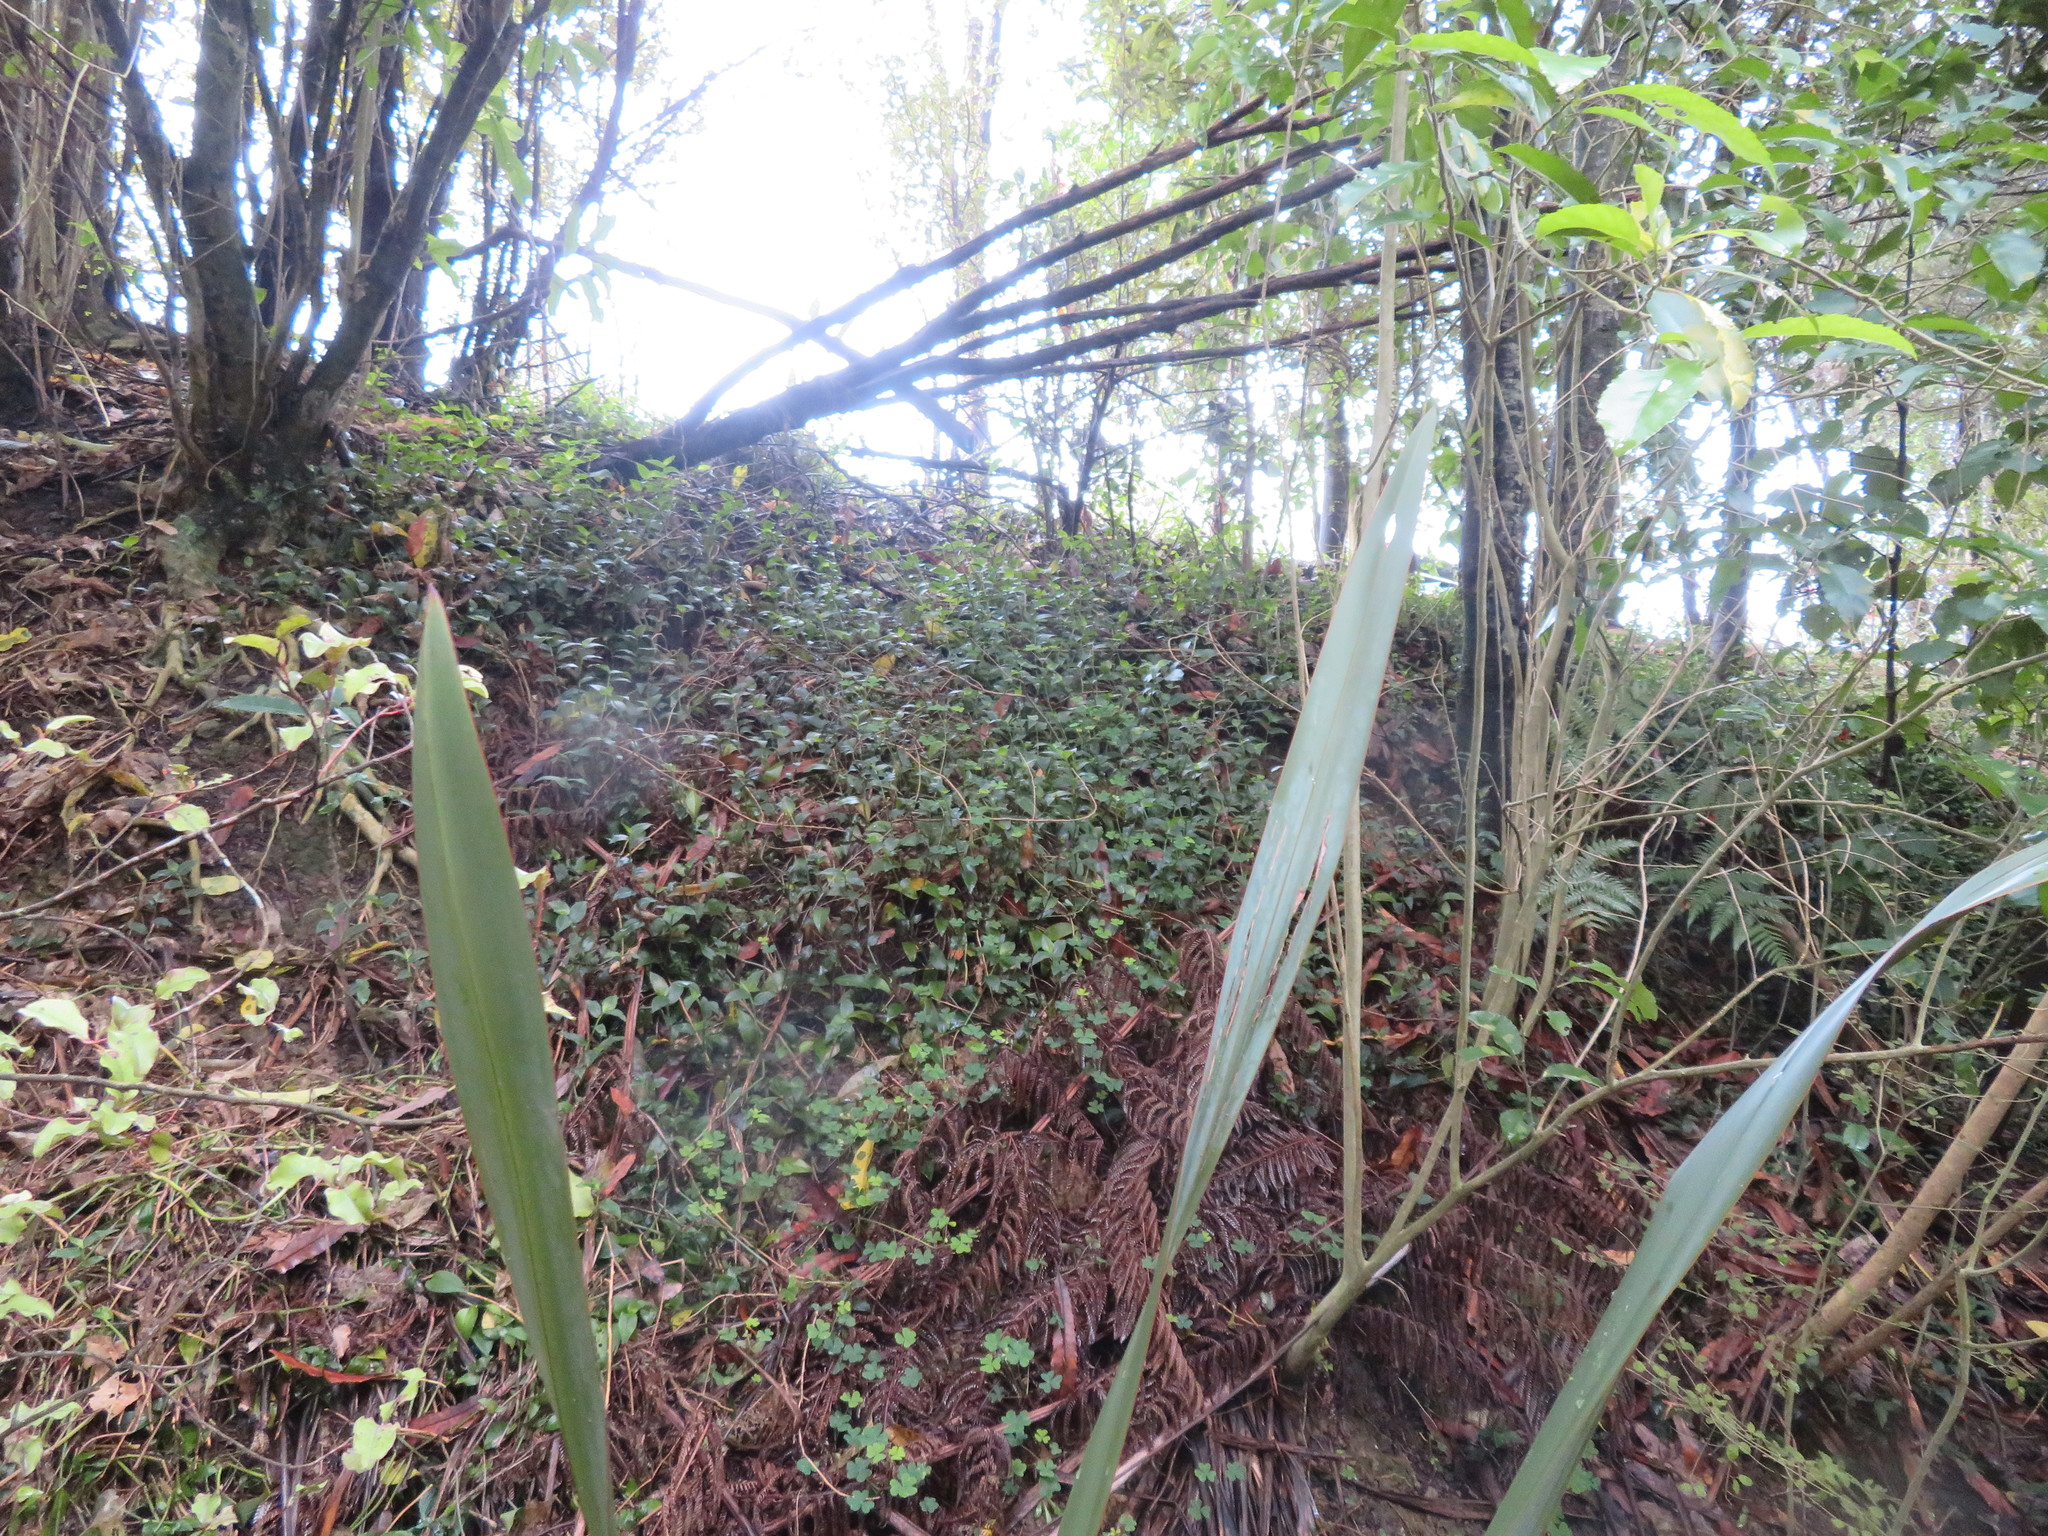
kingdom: Plantae
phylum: Tracheophyta
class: Liliopsida
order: Commelinales
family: Commelinaceae
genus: Tradescantia
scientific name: Tradescantia fluminensis
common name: Wandering-jew
